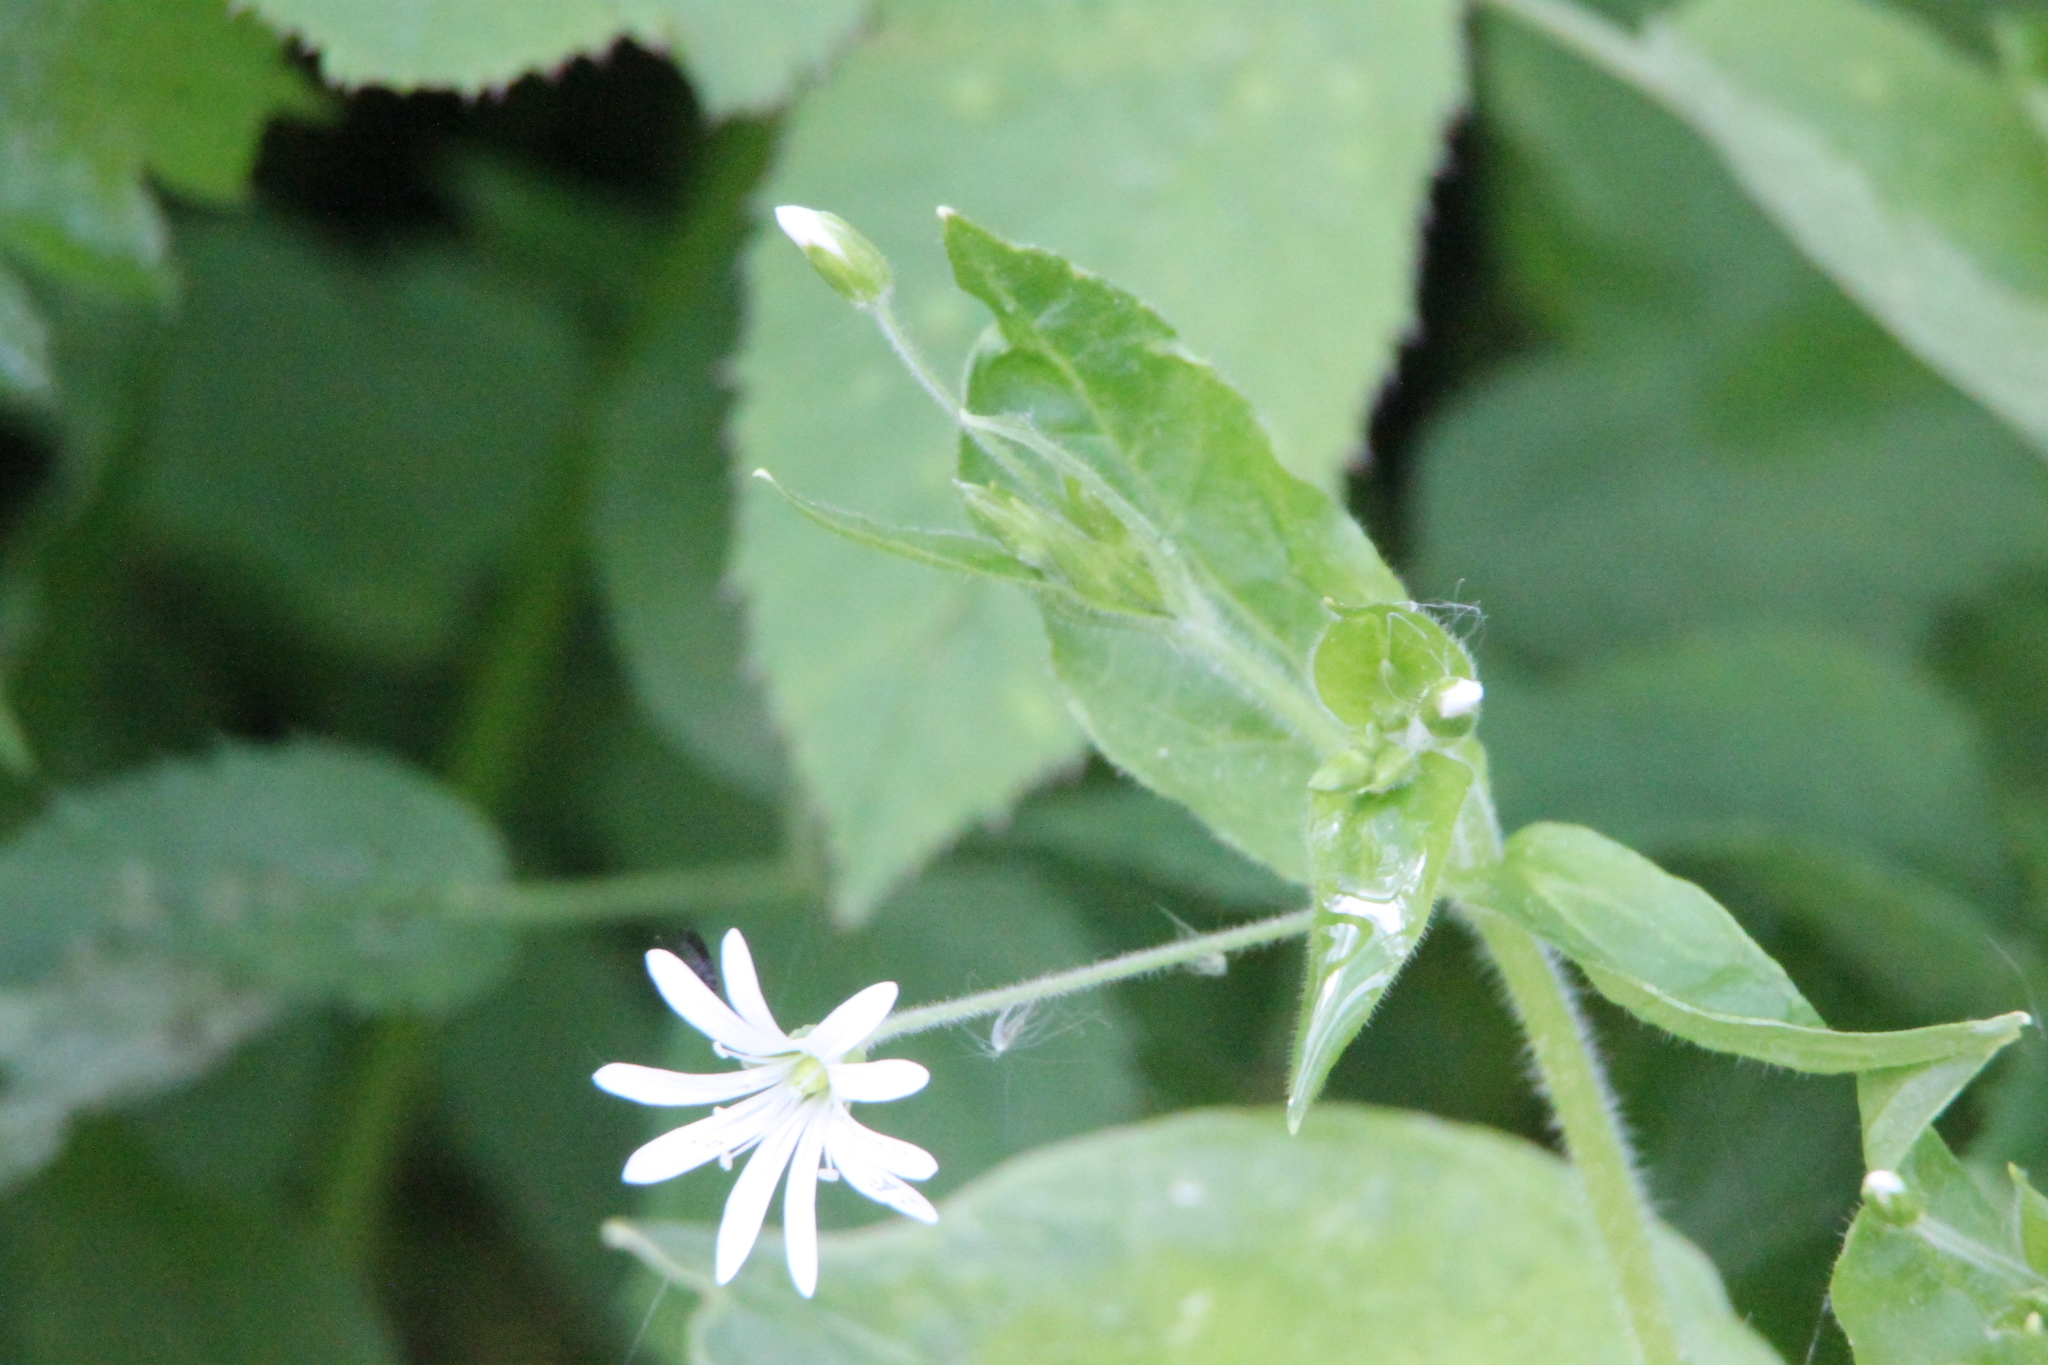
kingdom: Plantae
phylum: Tracheophyta
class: Magnoliopsida
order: Caryophyllales
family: Caryophyllaceae
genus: Stellaria
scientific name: Stellaria nemorum
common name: Wood stitchwort
